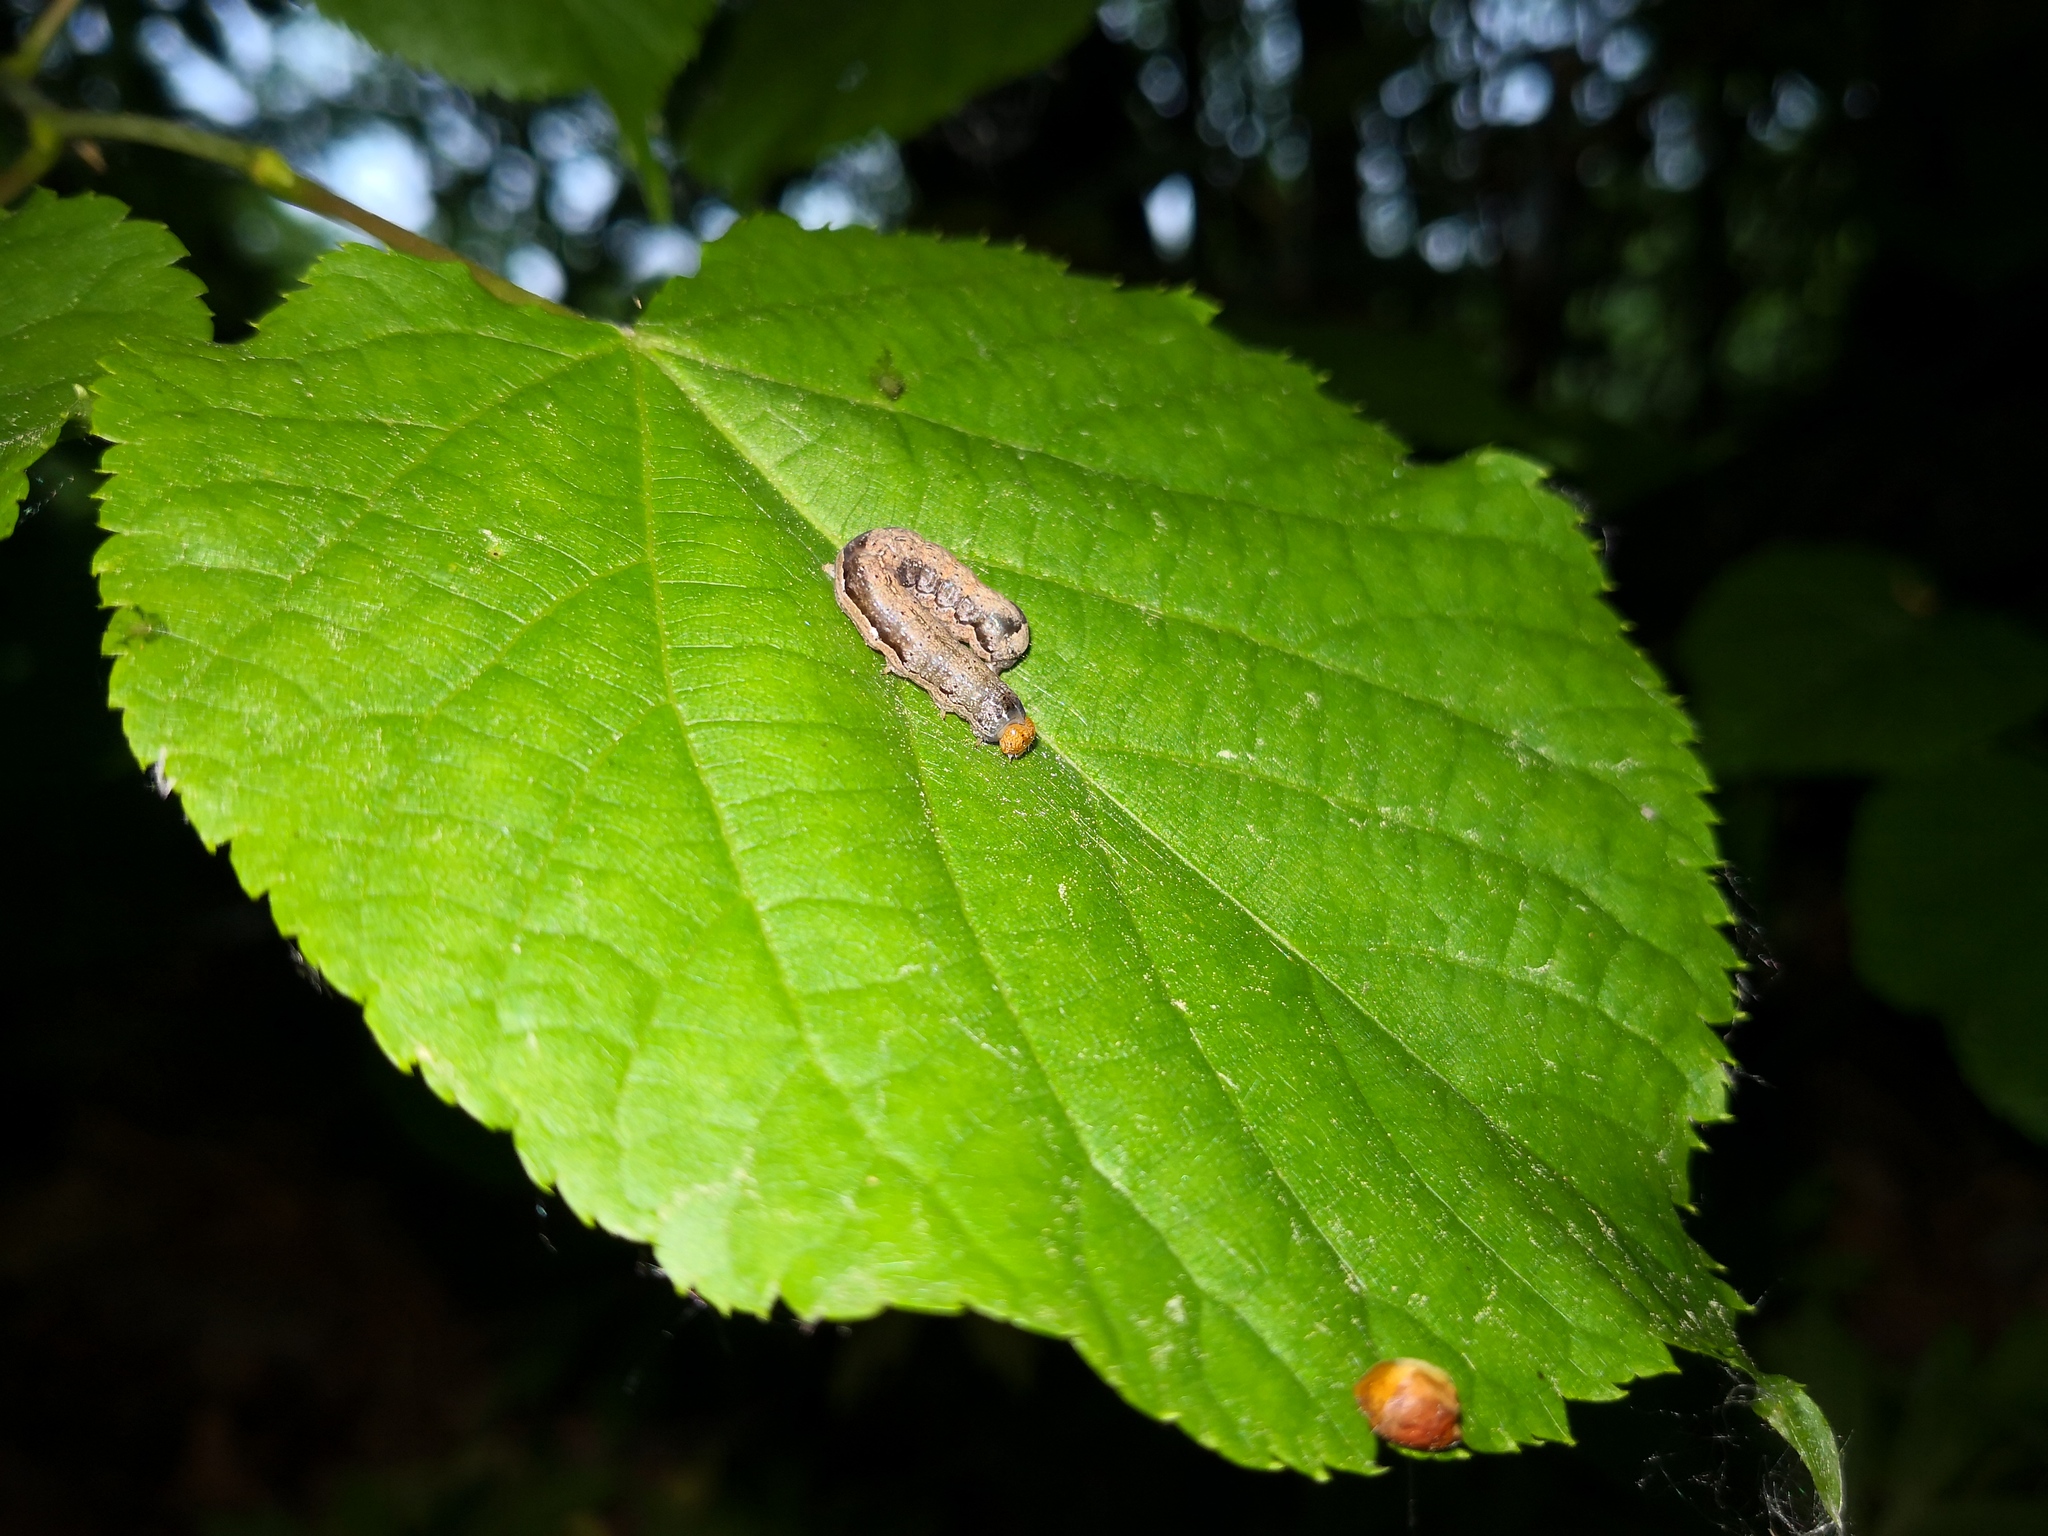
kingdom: Animalia
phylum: Arthropoda
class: Insecta
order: Lepidoptera
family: Noctuidae
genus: Anorthoa
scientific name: Anorthoa munda
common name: Twin-spotted quaker
